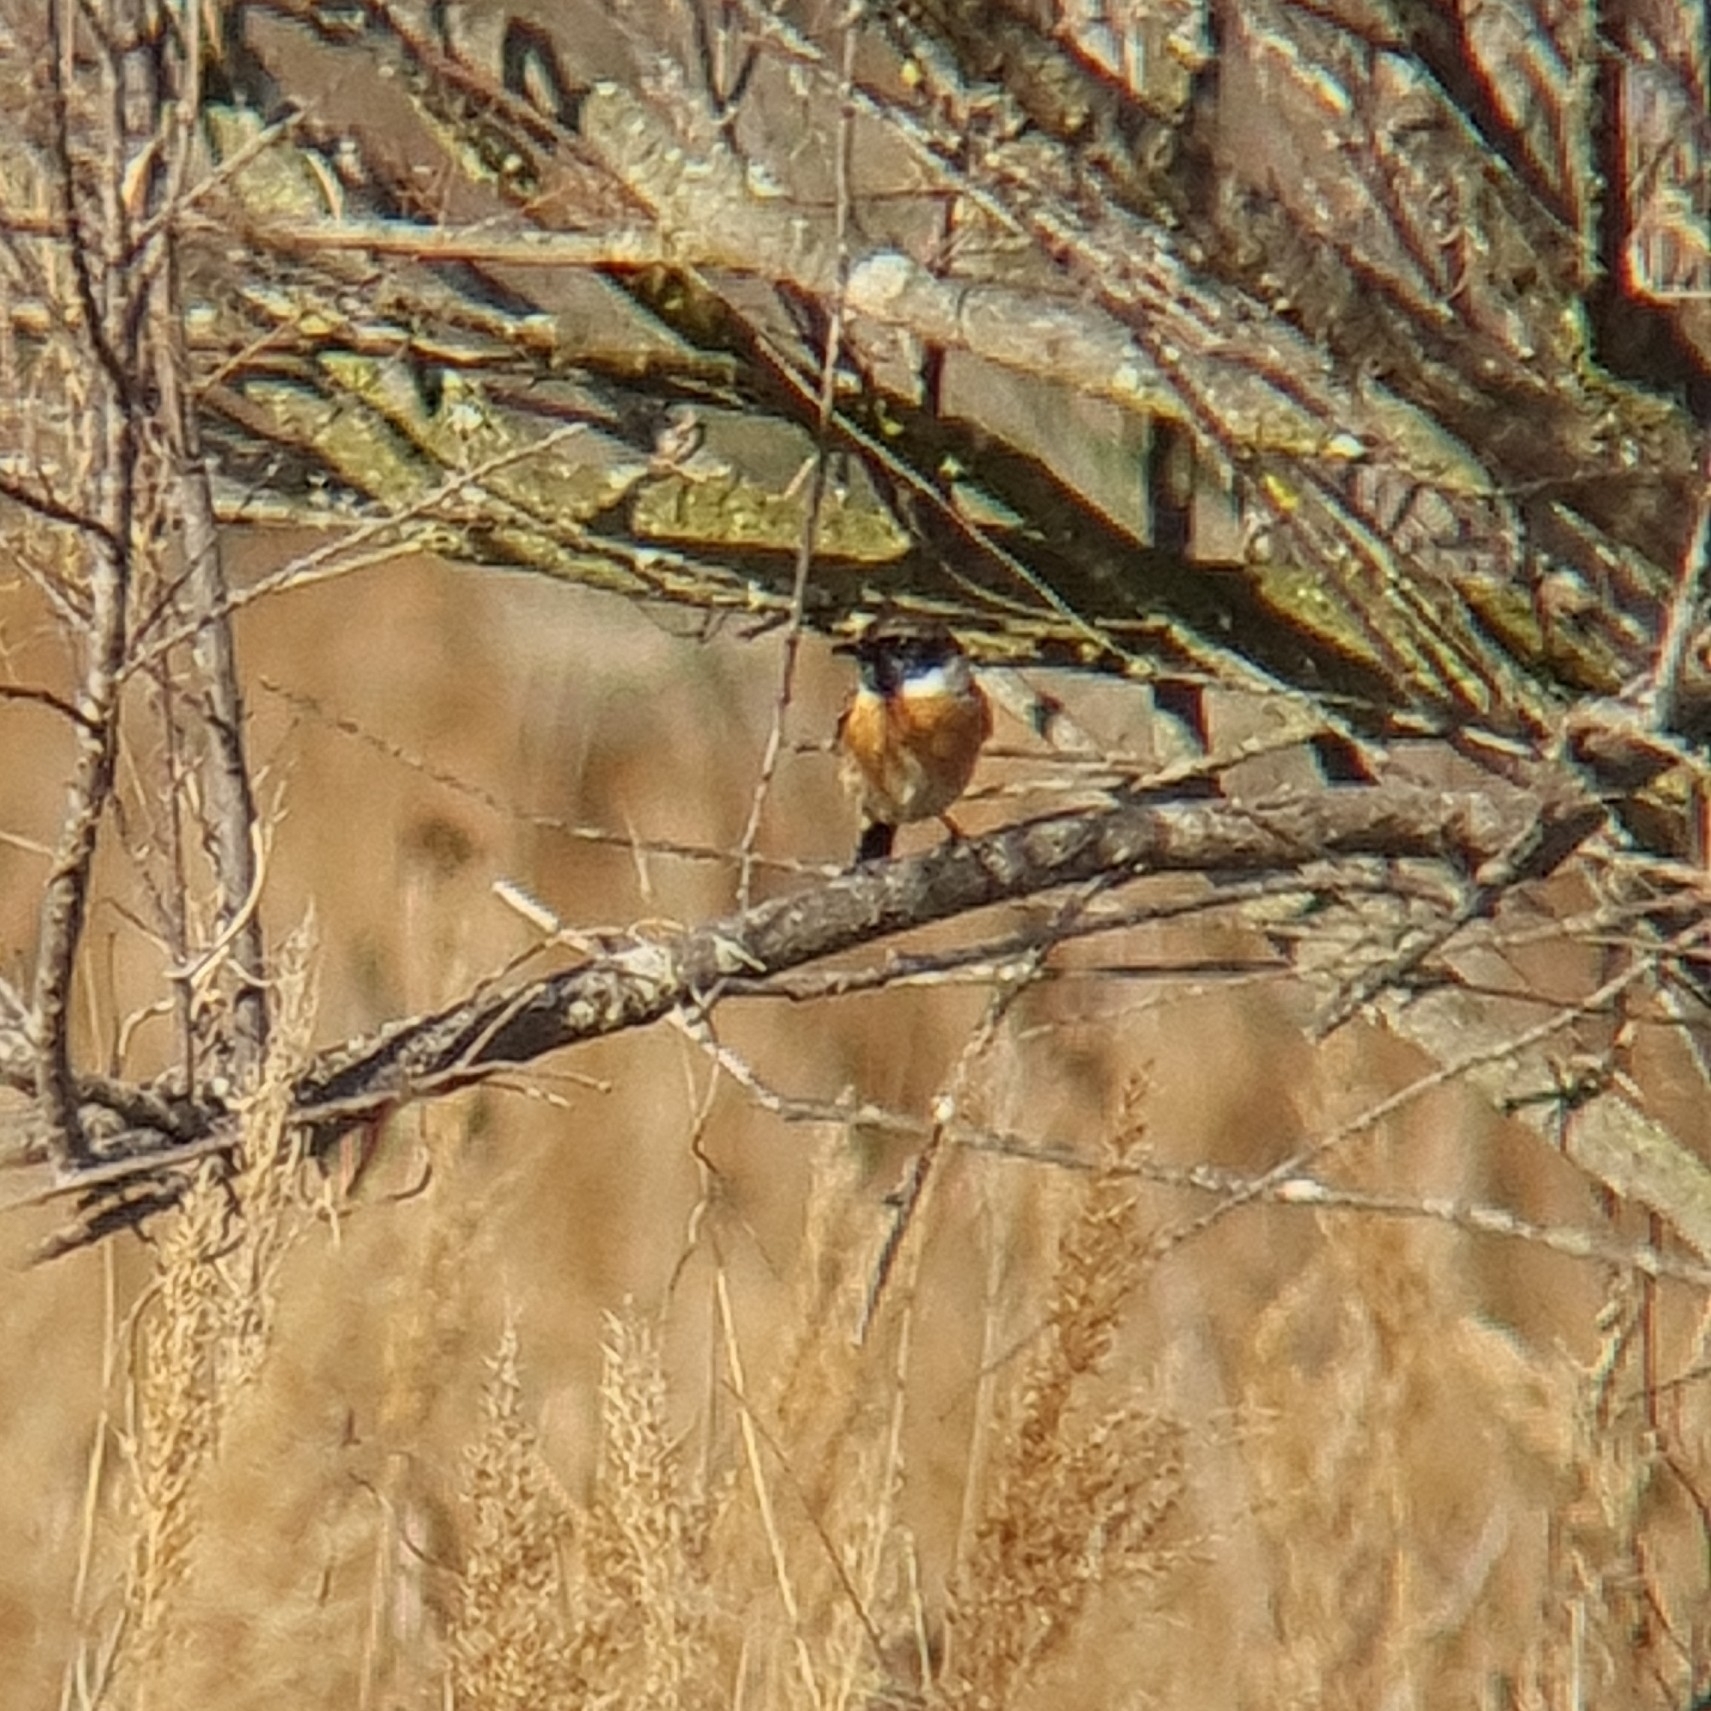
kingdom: Animalia
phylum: Chordata
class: Aves
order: Passeriformes
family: Muscicapidae
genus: Saxicola
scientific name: Saxicola rubicola
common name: European stonechat
